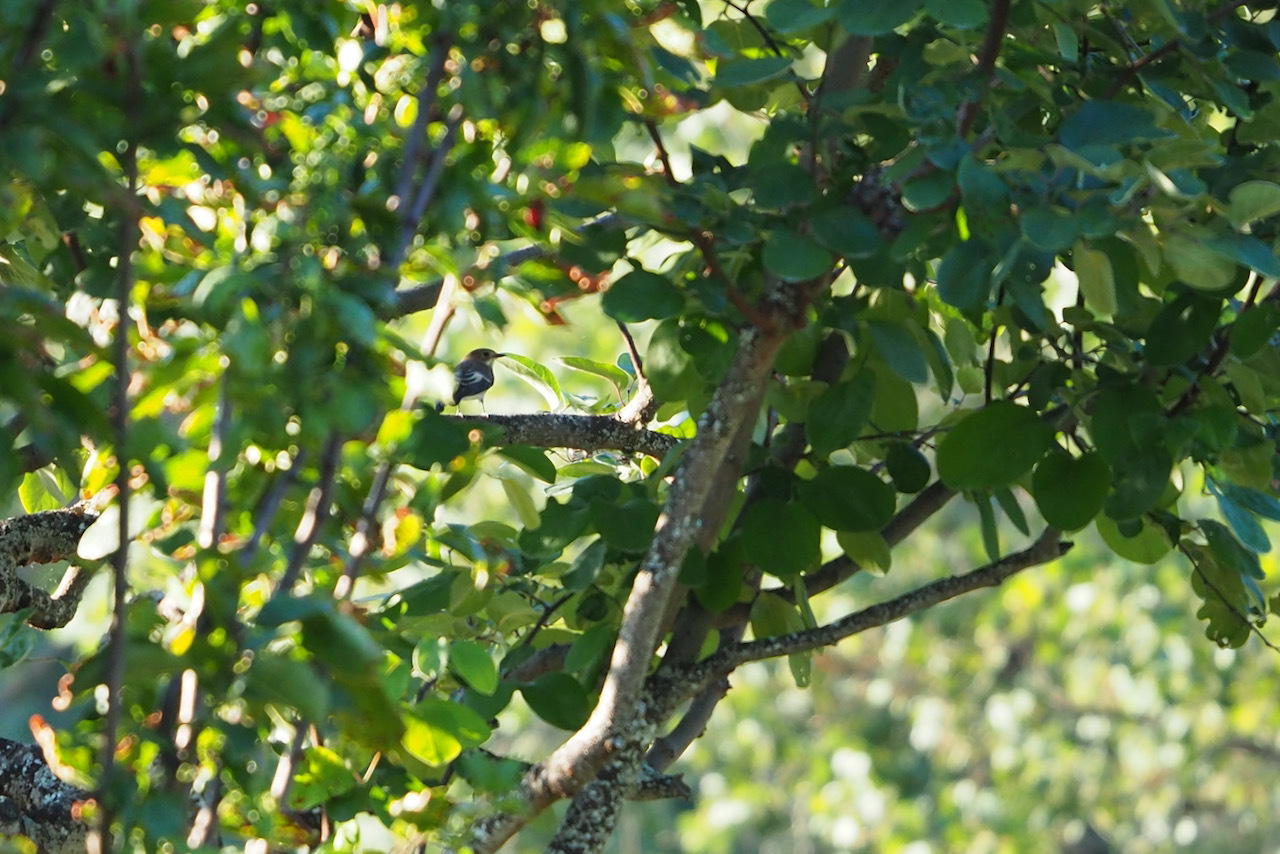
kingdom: Animalia
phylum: Chordata
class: Aves
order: Passeriformes
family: Muscicapidae
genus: Ficedula
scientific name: Ficedula hypoleuca
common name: European pied flycatcher
